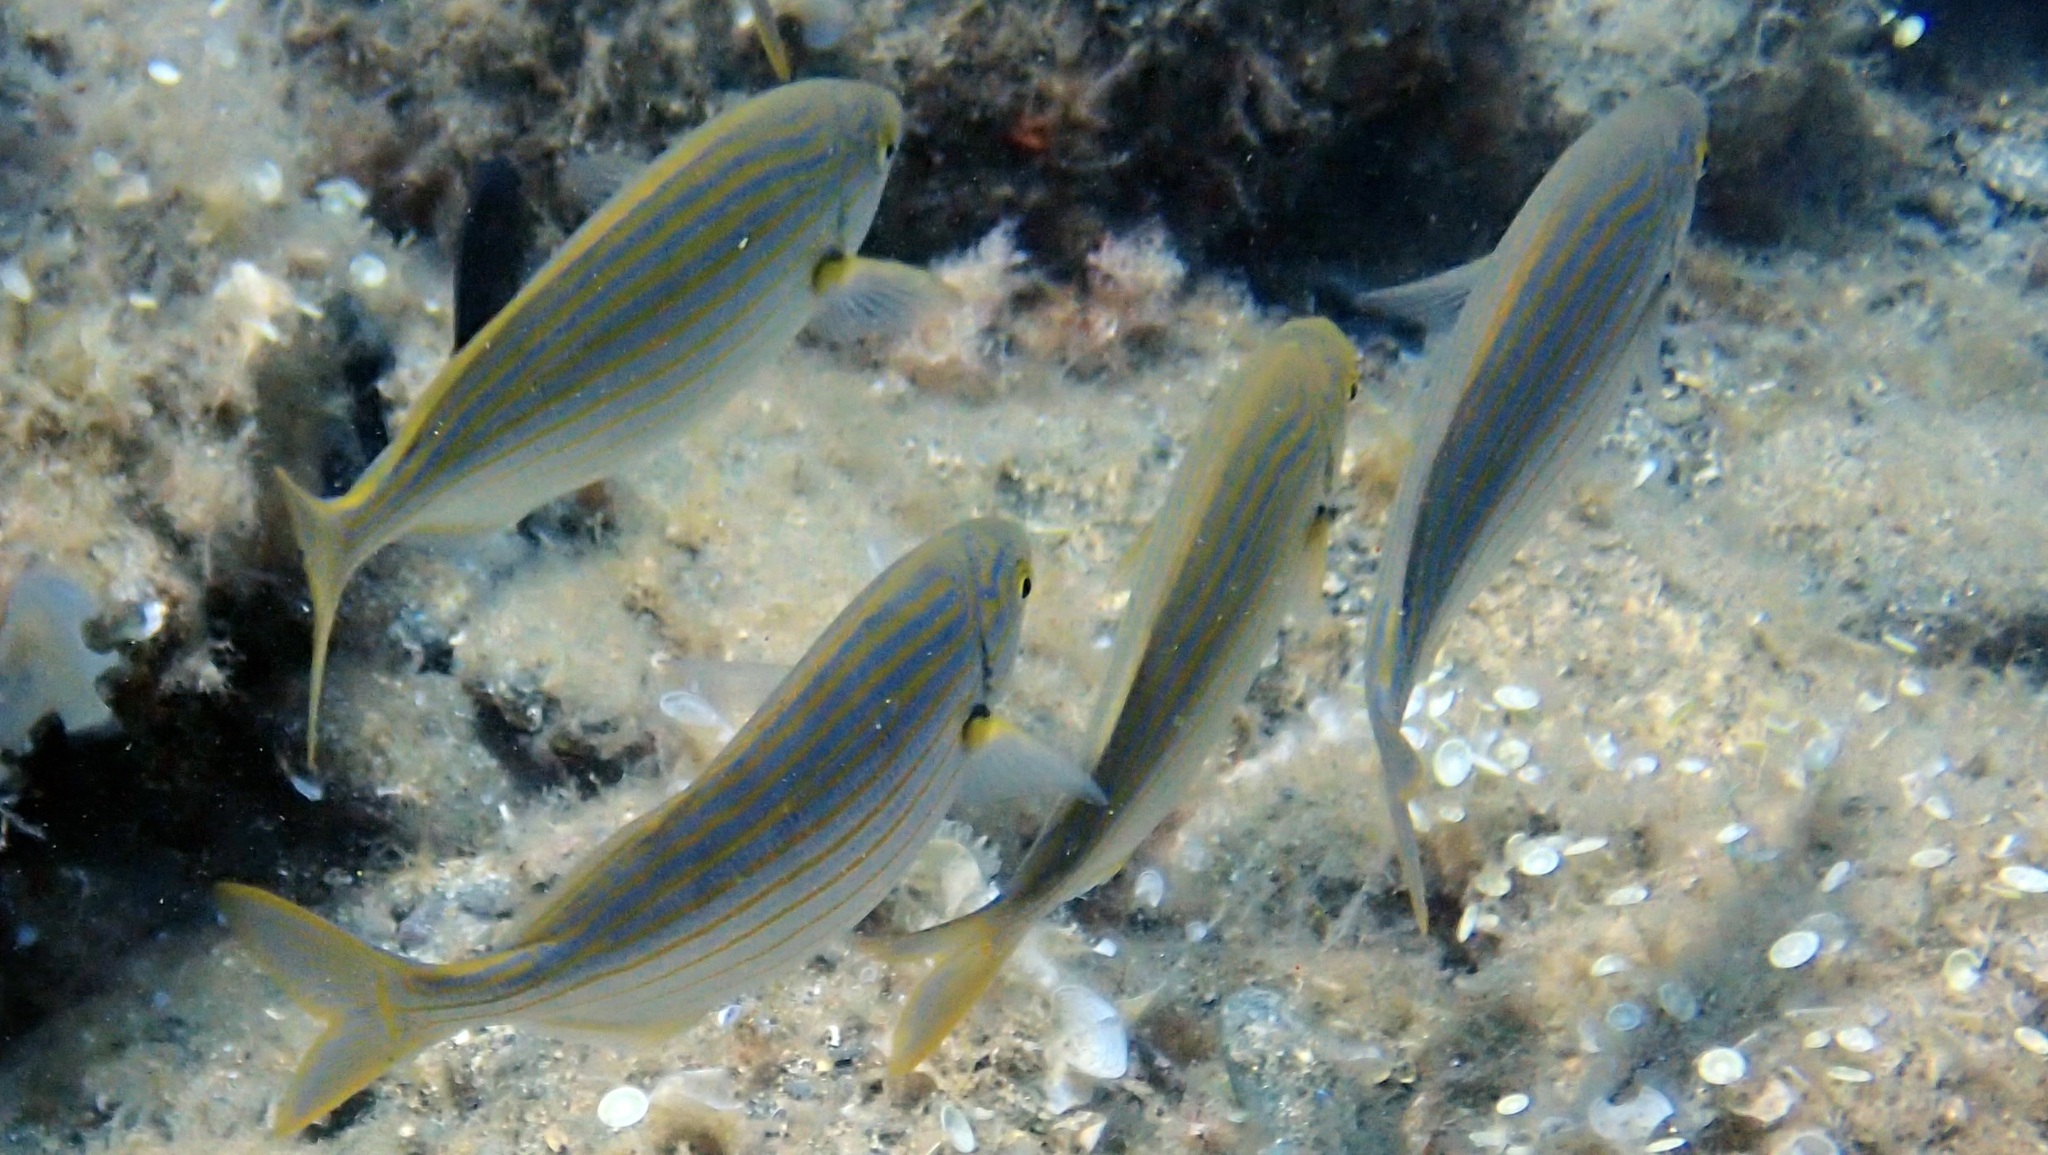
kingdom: Animalia
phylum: Chordata
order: Perciformes
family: Sparidae
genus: Sarpa
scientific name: Sarpa salpa
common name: Salema
